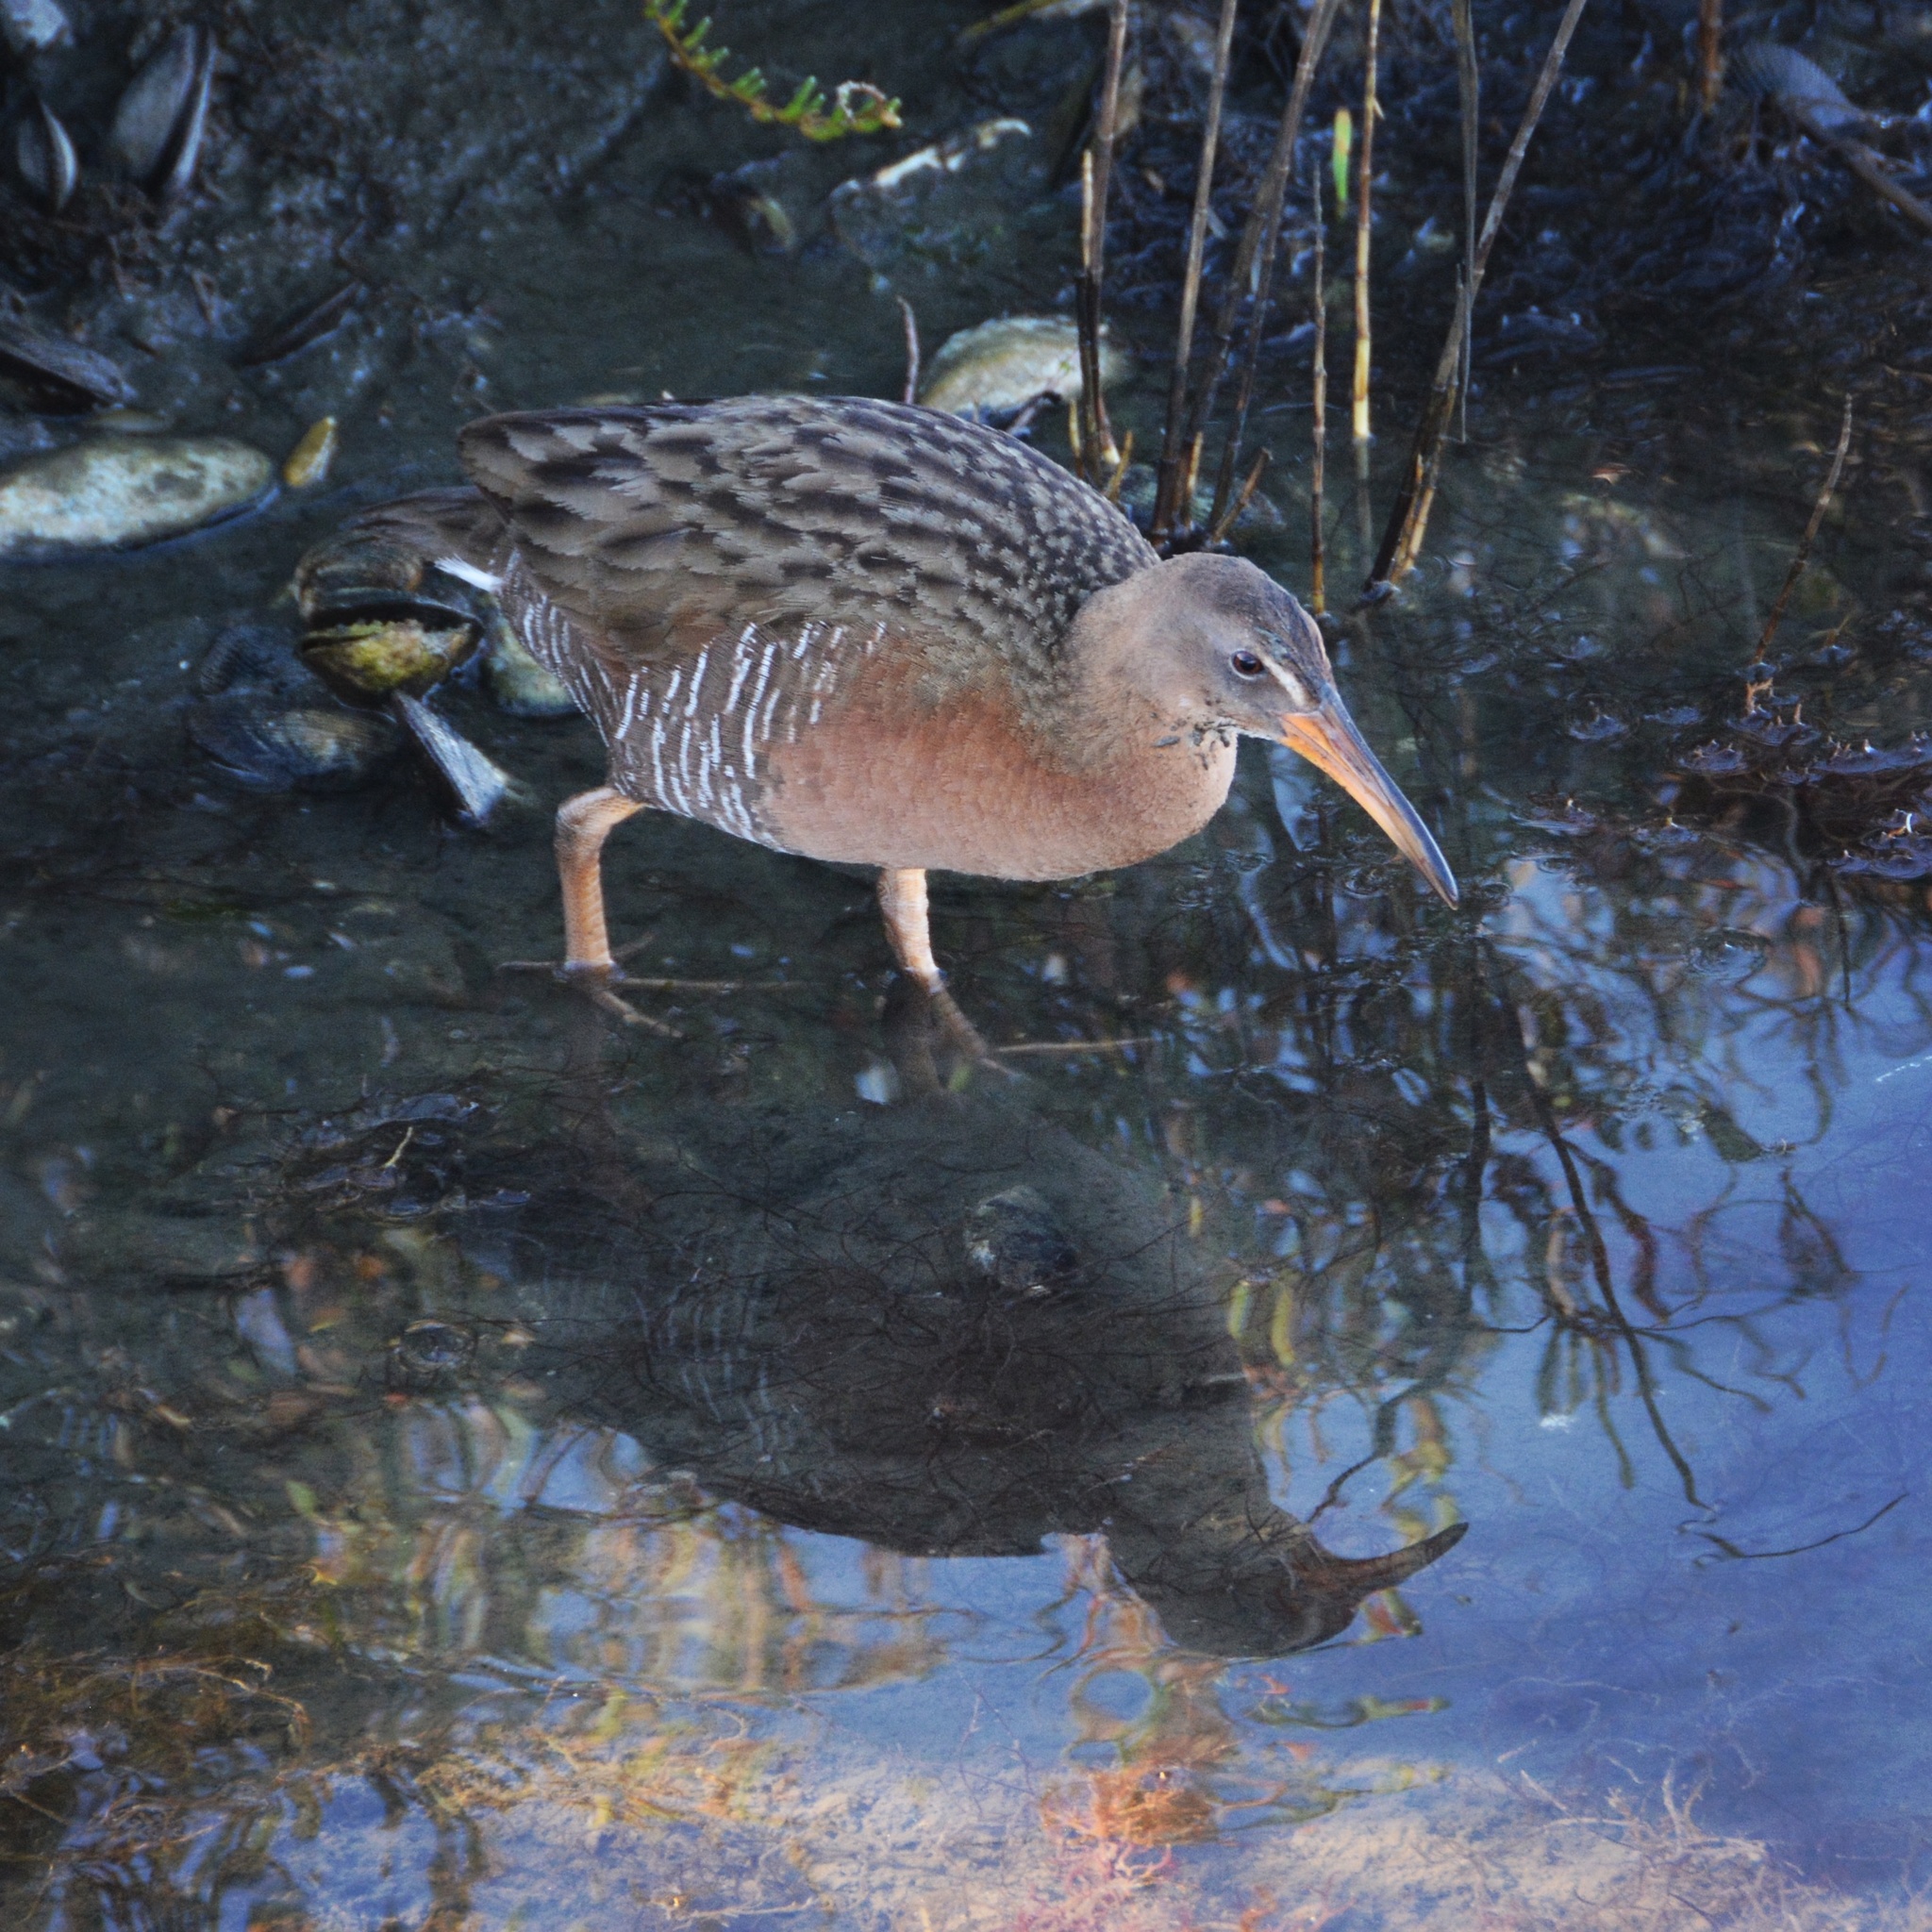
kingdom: Animalia
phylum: Chordata
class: Aves
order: Gruiformes
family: Rallidae
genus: Rallus
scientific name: Rallus obsoletus
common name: Ridgway's rail
